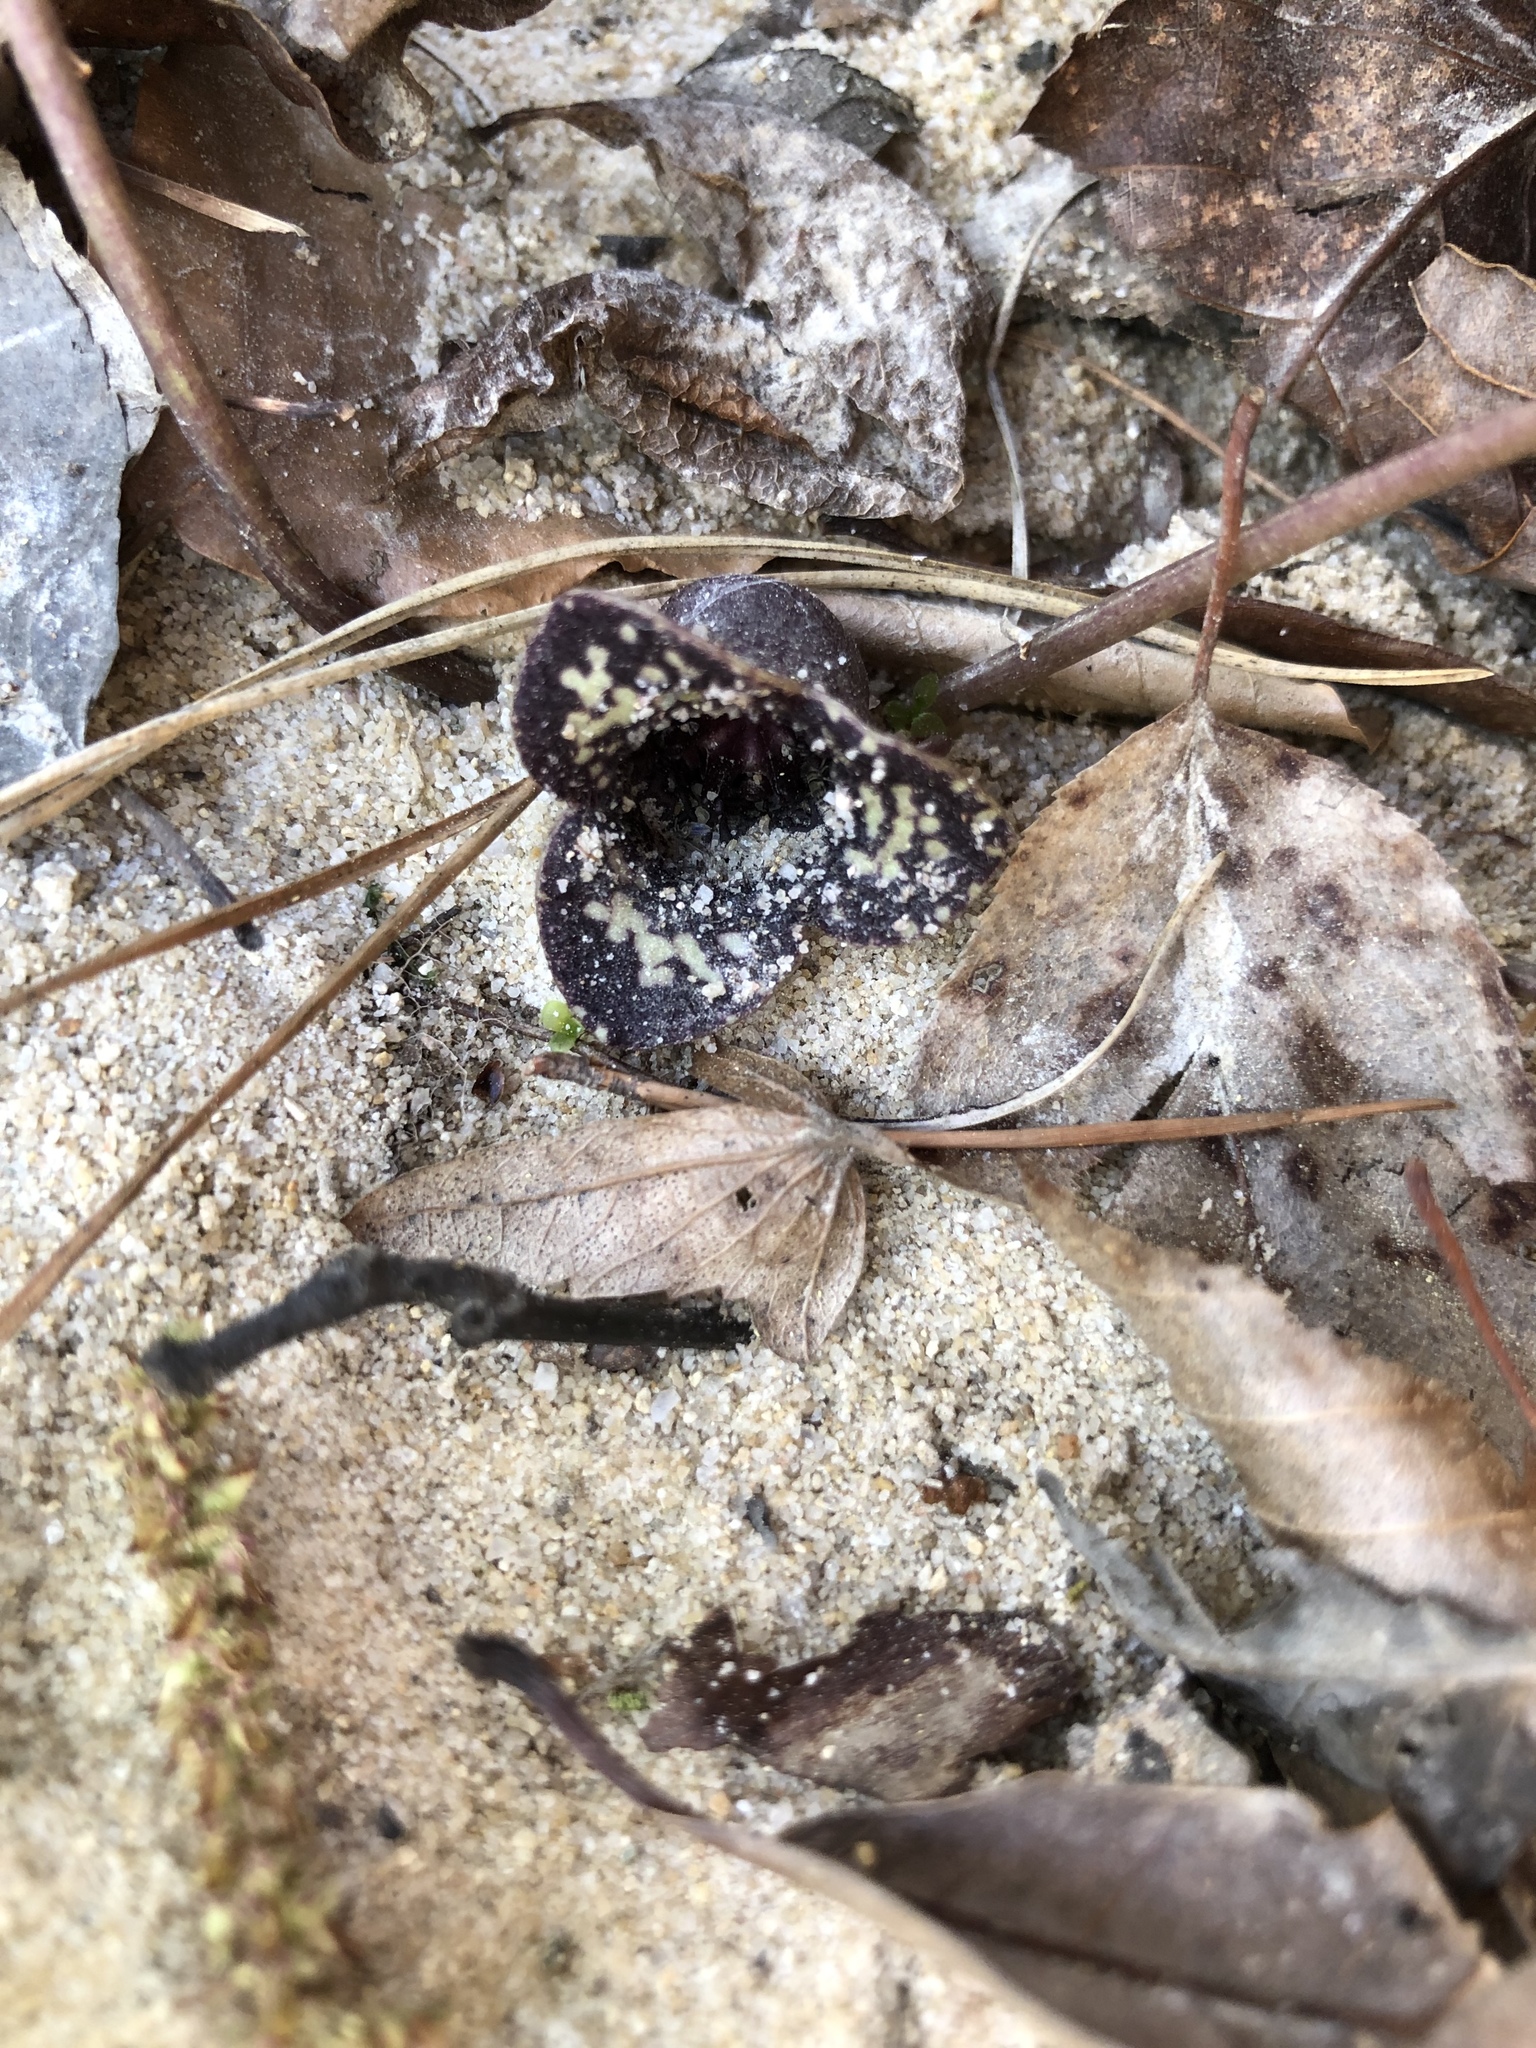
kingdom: Plantae
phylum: Tracheophyta
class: Magnoliopsida
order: Piperales
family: Aristolochiaceae
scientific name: Aristolochiaceae
